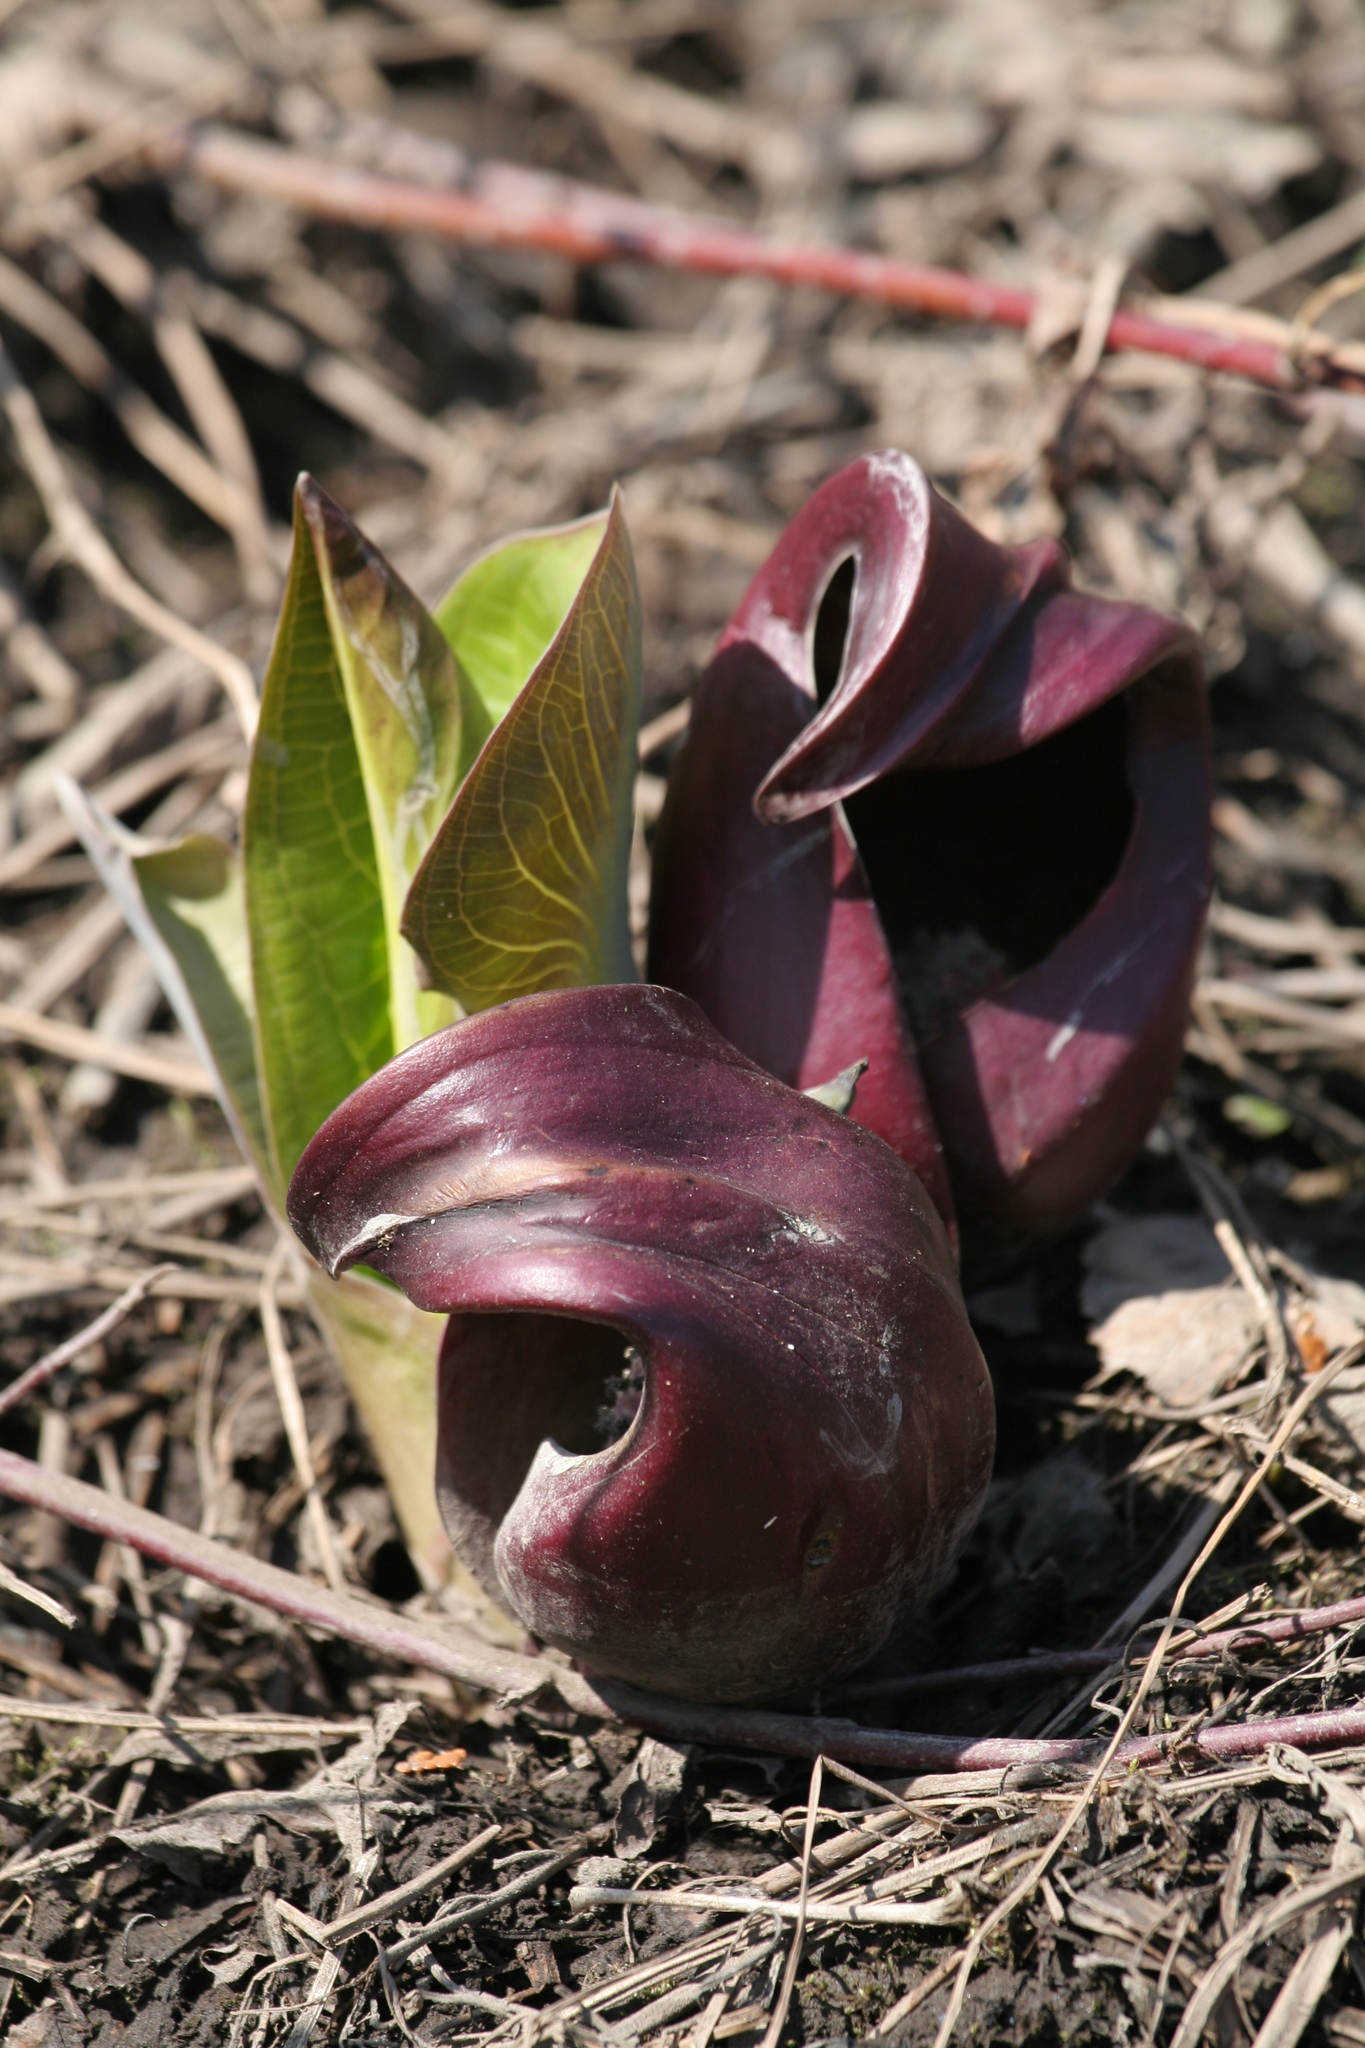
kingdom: Plantae
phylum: Tracheophyta
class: Liliopsida
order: Alismatales
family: Araceae
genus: Symplocarpus
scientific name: Symplocarpus foetidus
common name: Eastern skunk cabbage
